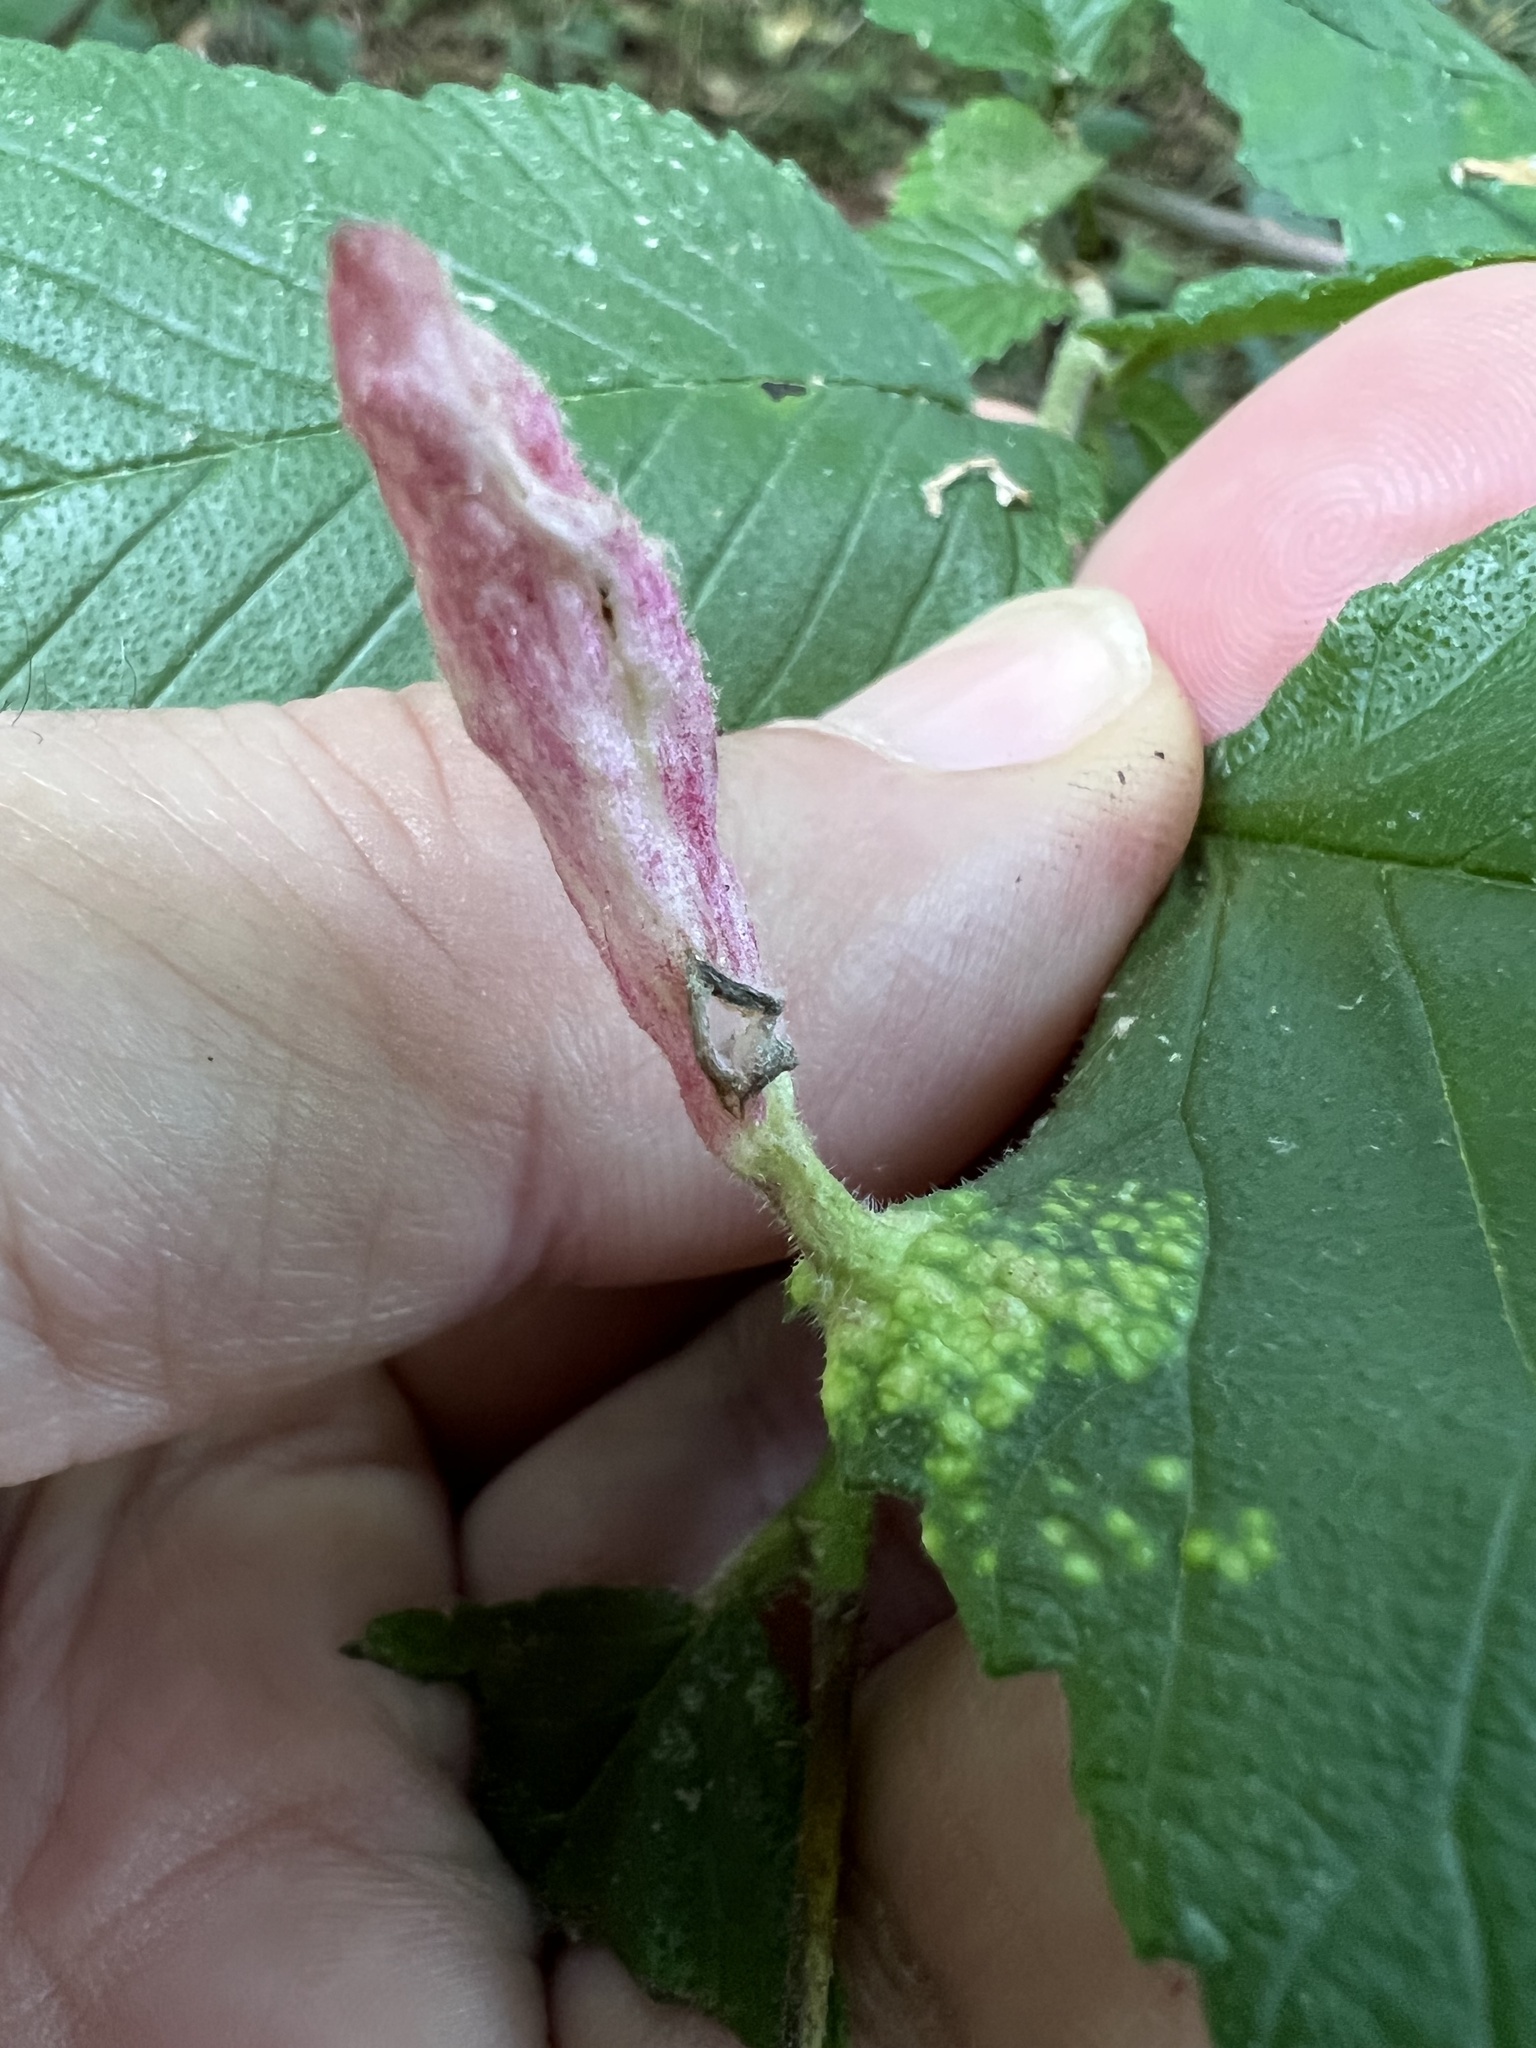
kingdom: Animalia
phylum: Arthropoda
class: Insecta
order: Hemiptera
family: Aphididae
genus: Tetraneura
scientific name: Tetraneura nigriabdominalis
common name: Aphid
